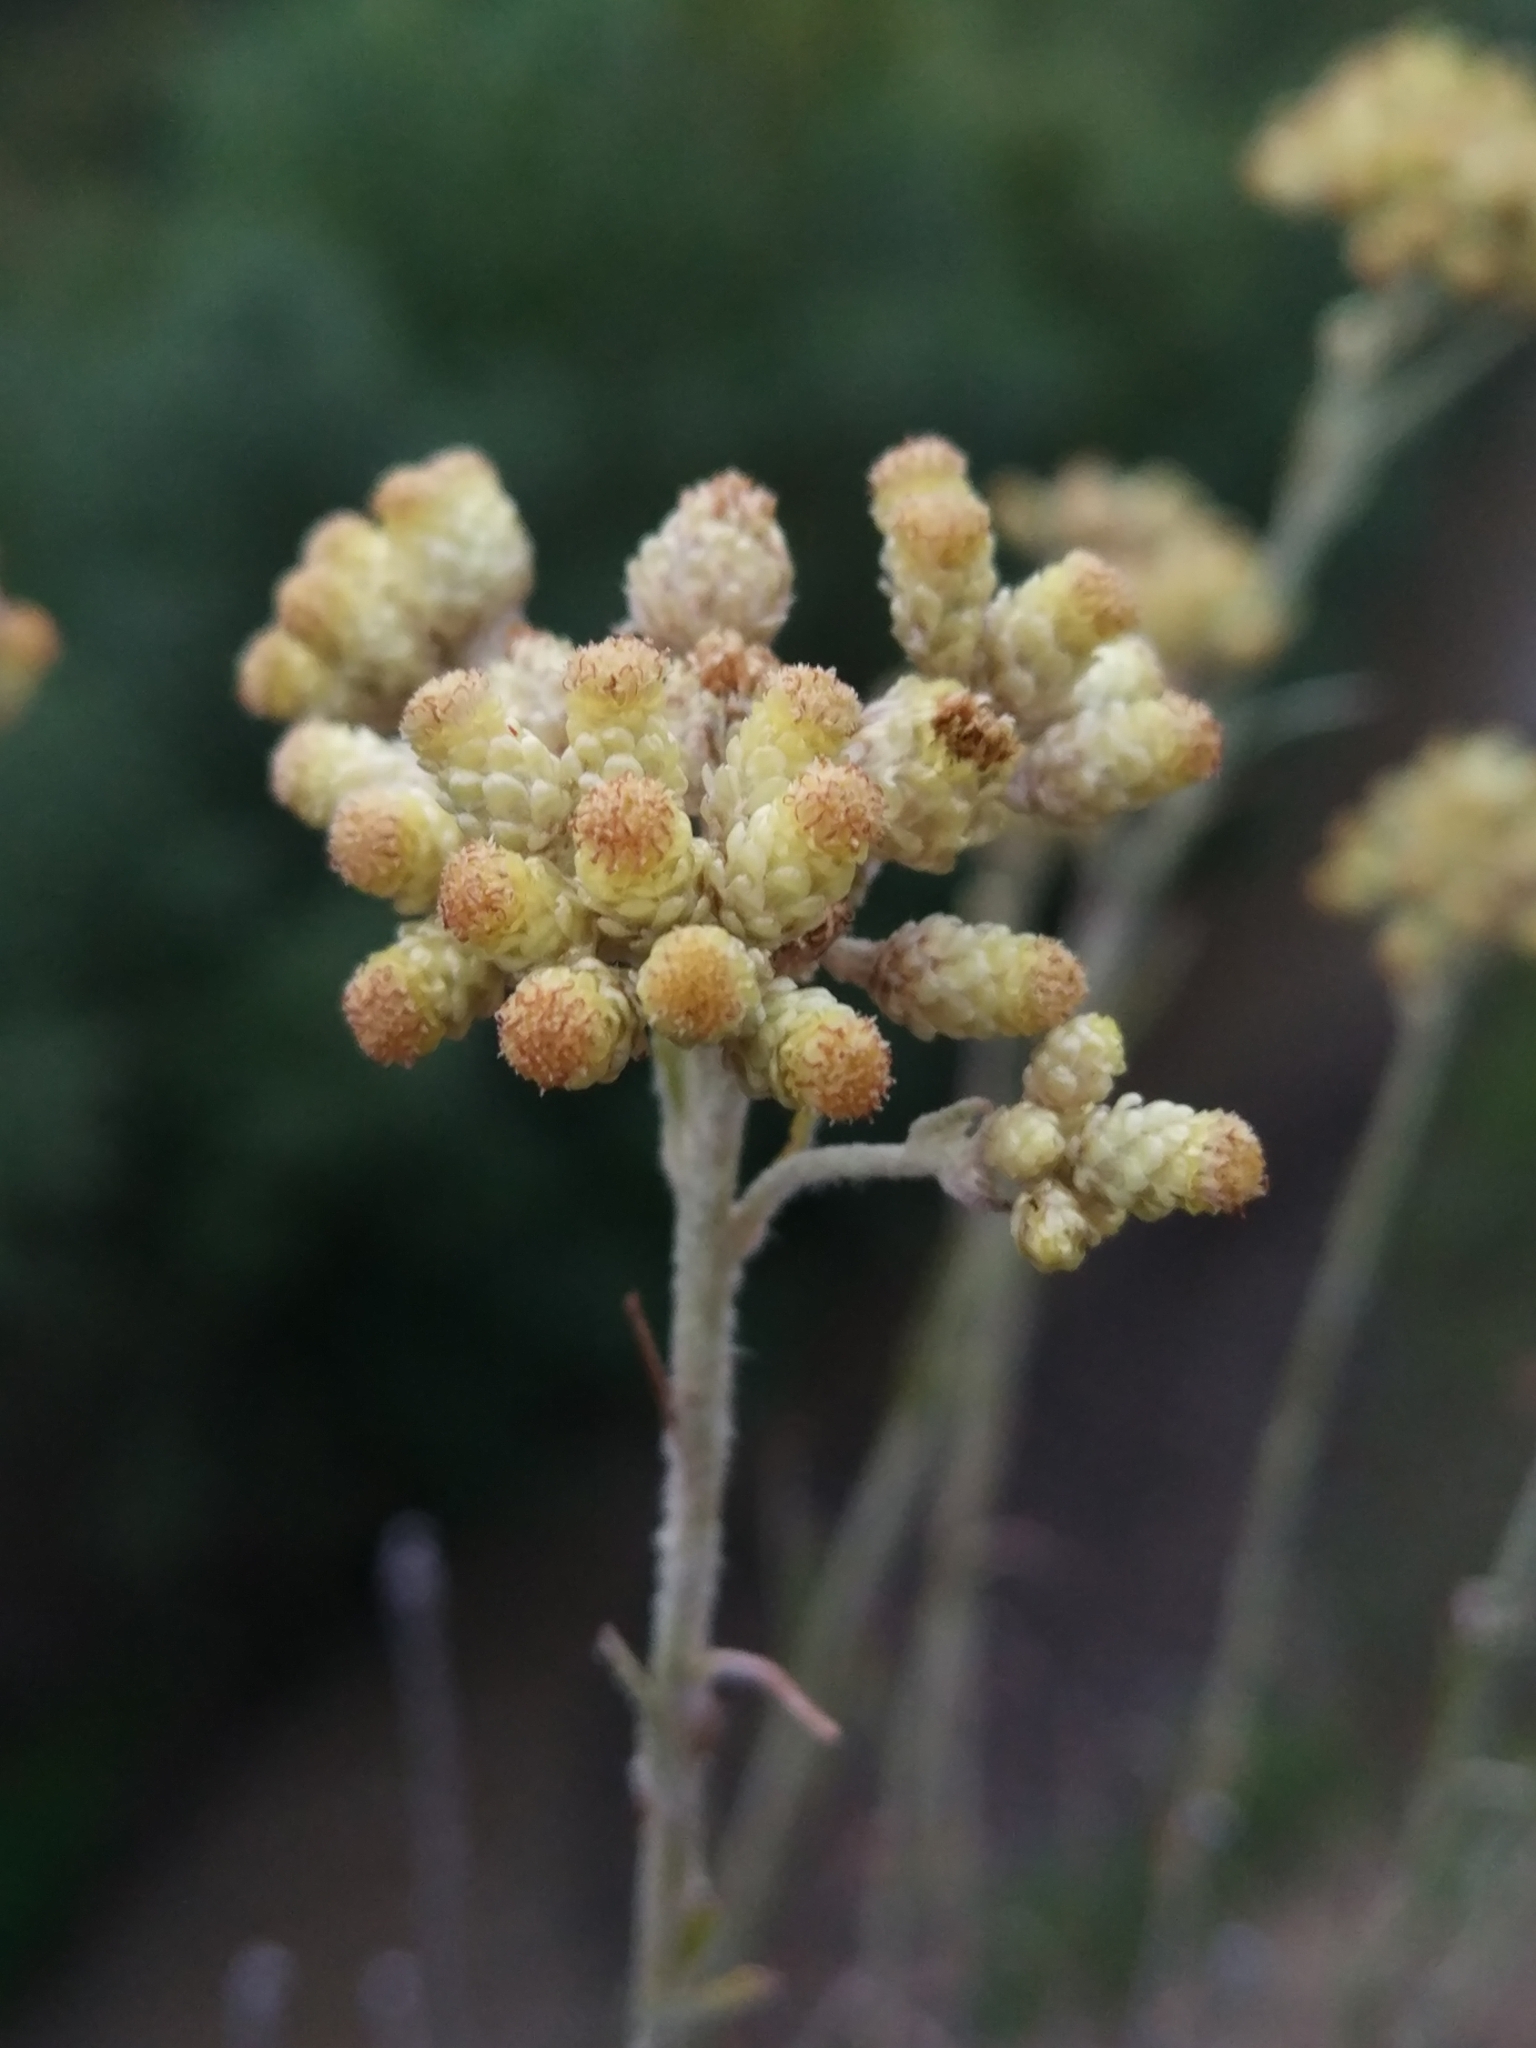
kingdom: Plantae
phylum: Tracheophyta
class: Magnoliopsida
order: Asterales
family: Asteraceae
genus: Helichrysum
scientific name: Helichrysum arenarium
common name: Strawflower
